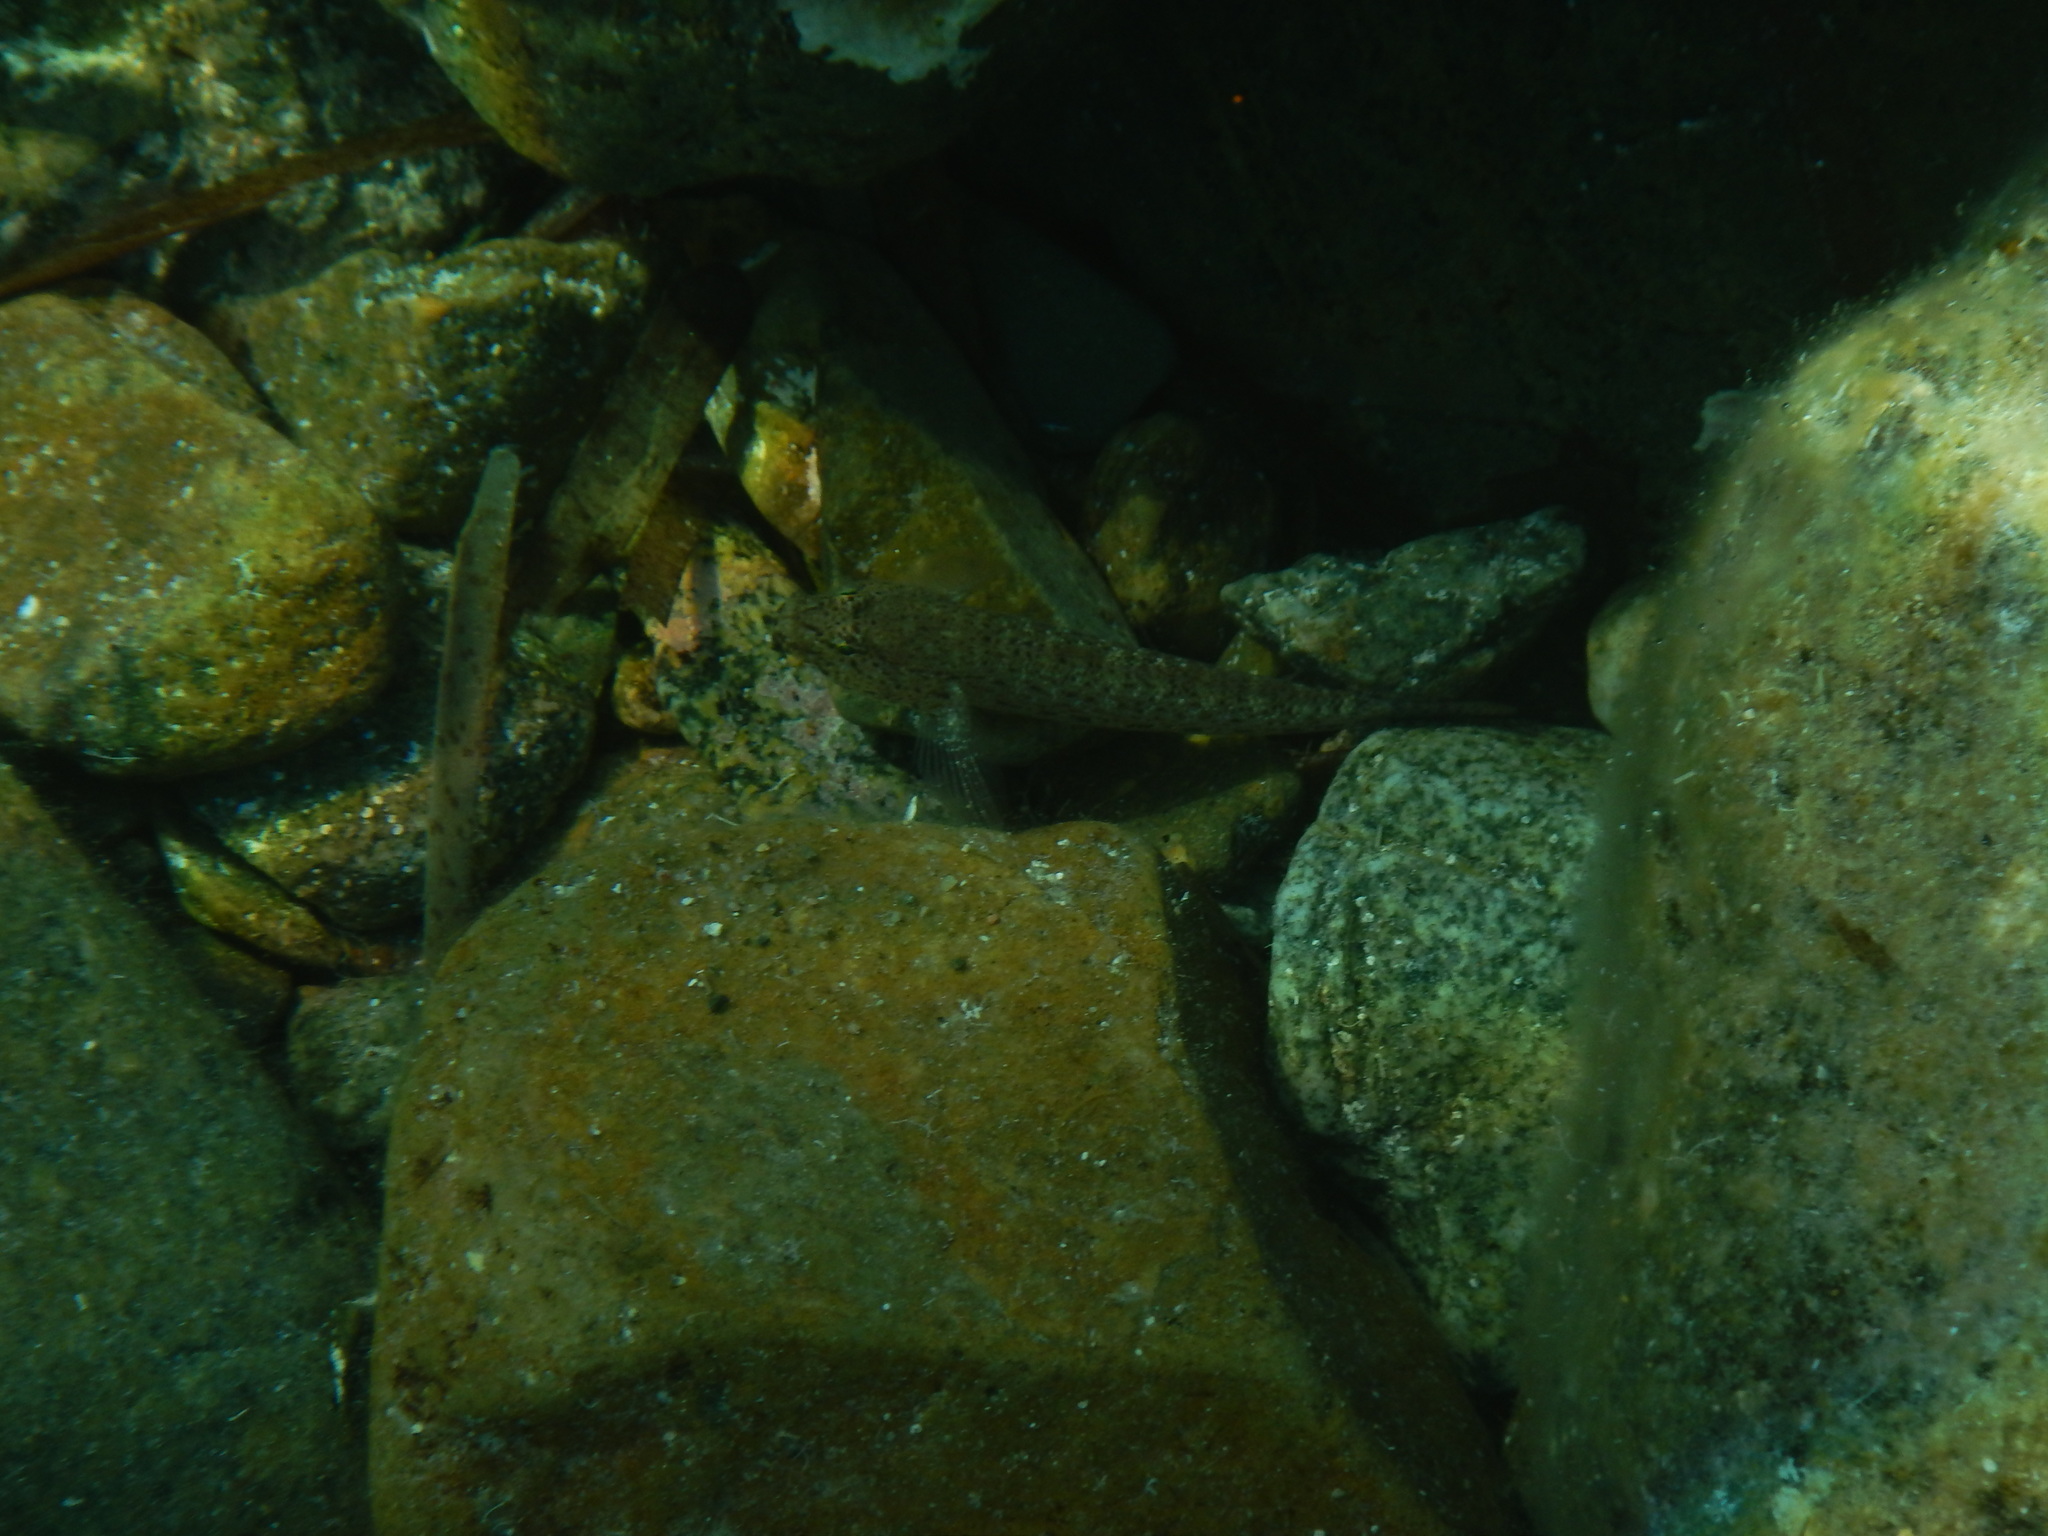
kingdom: Animalia
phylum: Chordata
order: Perciformes
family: Gobiidae
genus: Gobius
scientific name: Gobius incognitus
